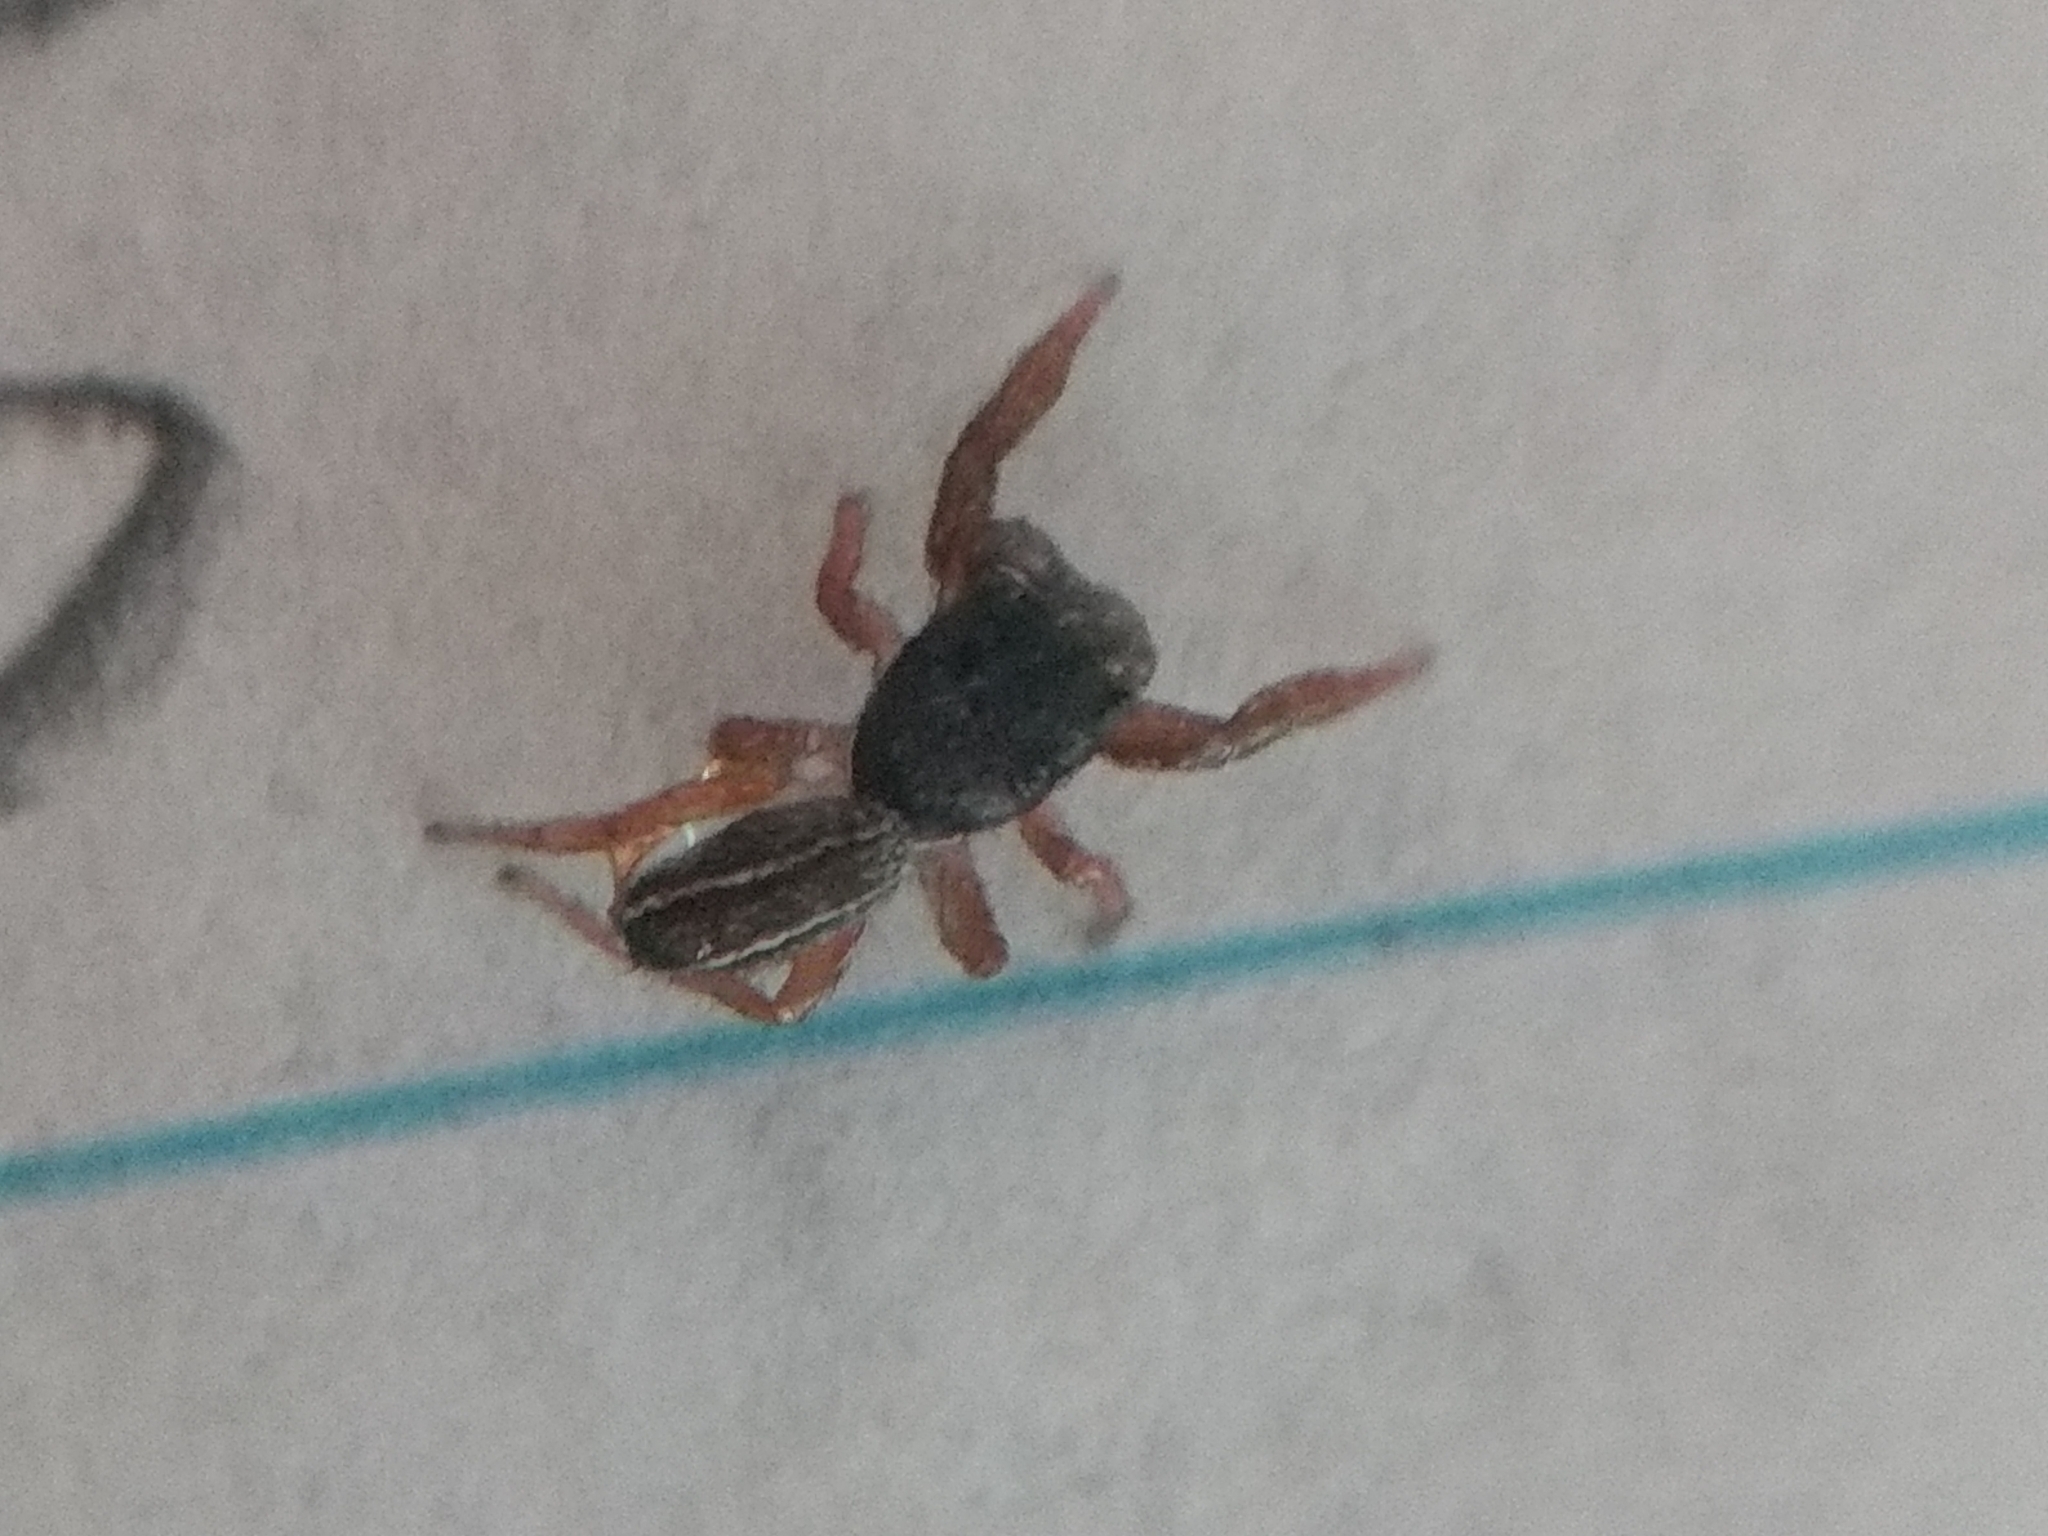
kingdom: Animalia
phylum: Arthropoda
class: Arachnida
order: Araneae
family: Salticidae
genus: Metacyrba
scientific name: Metacyrba taeniola
